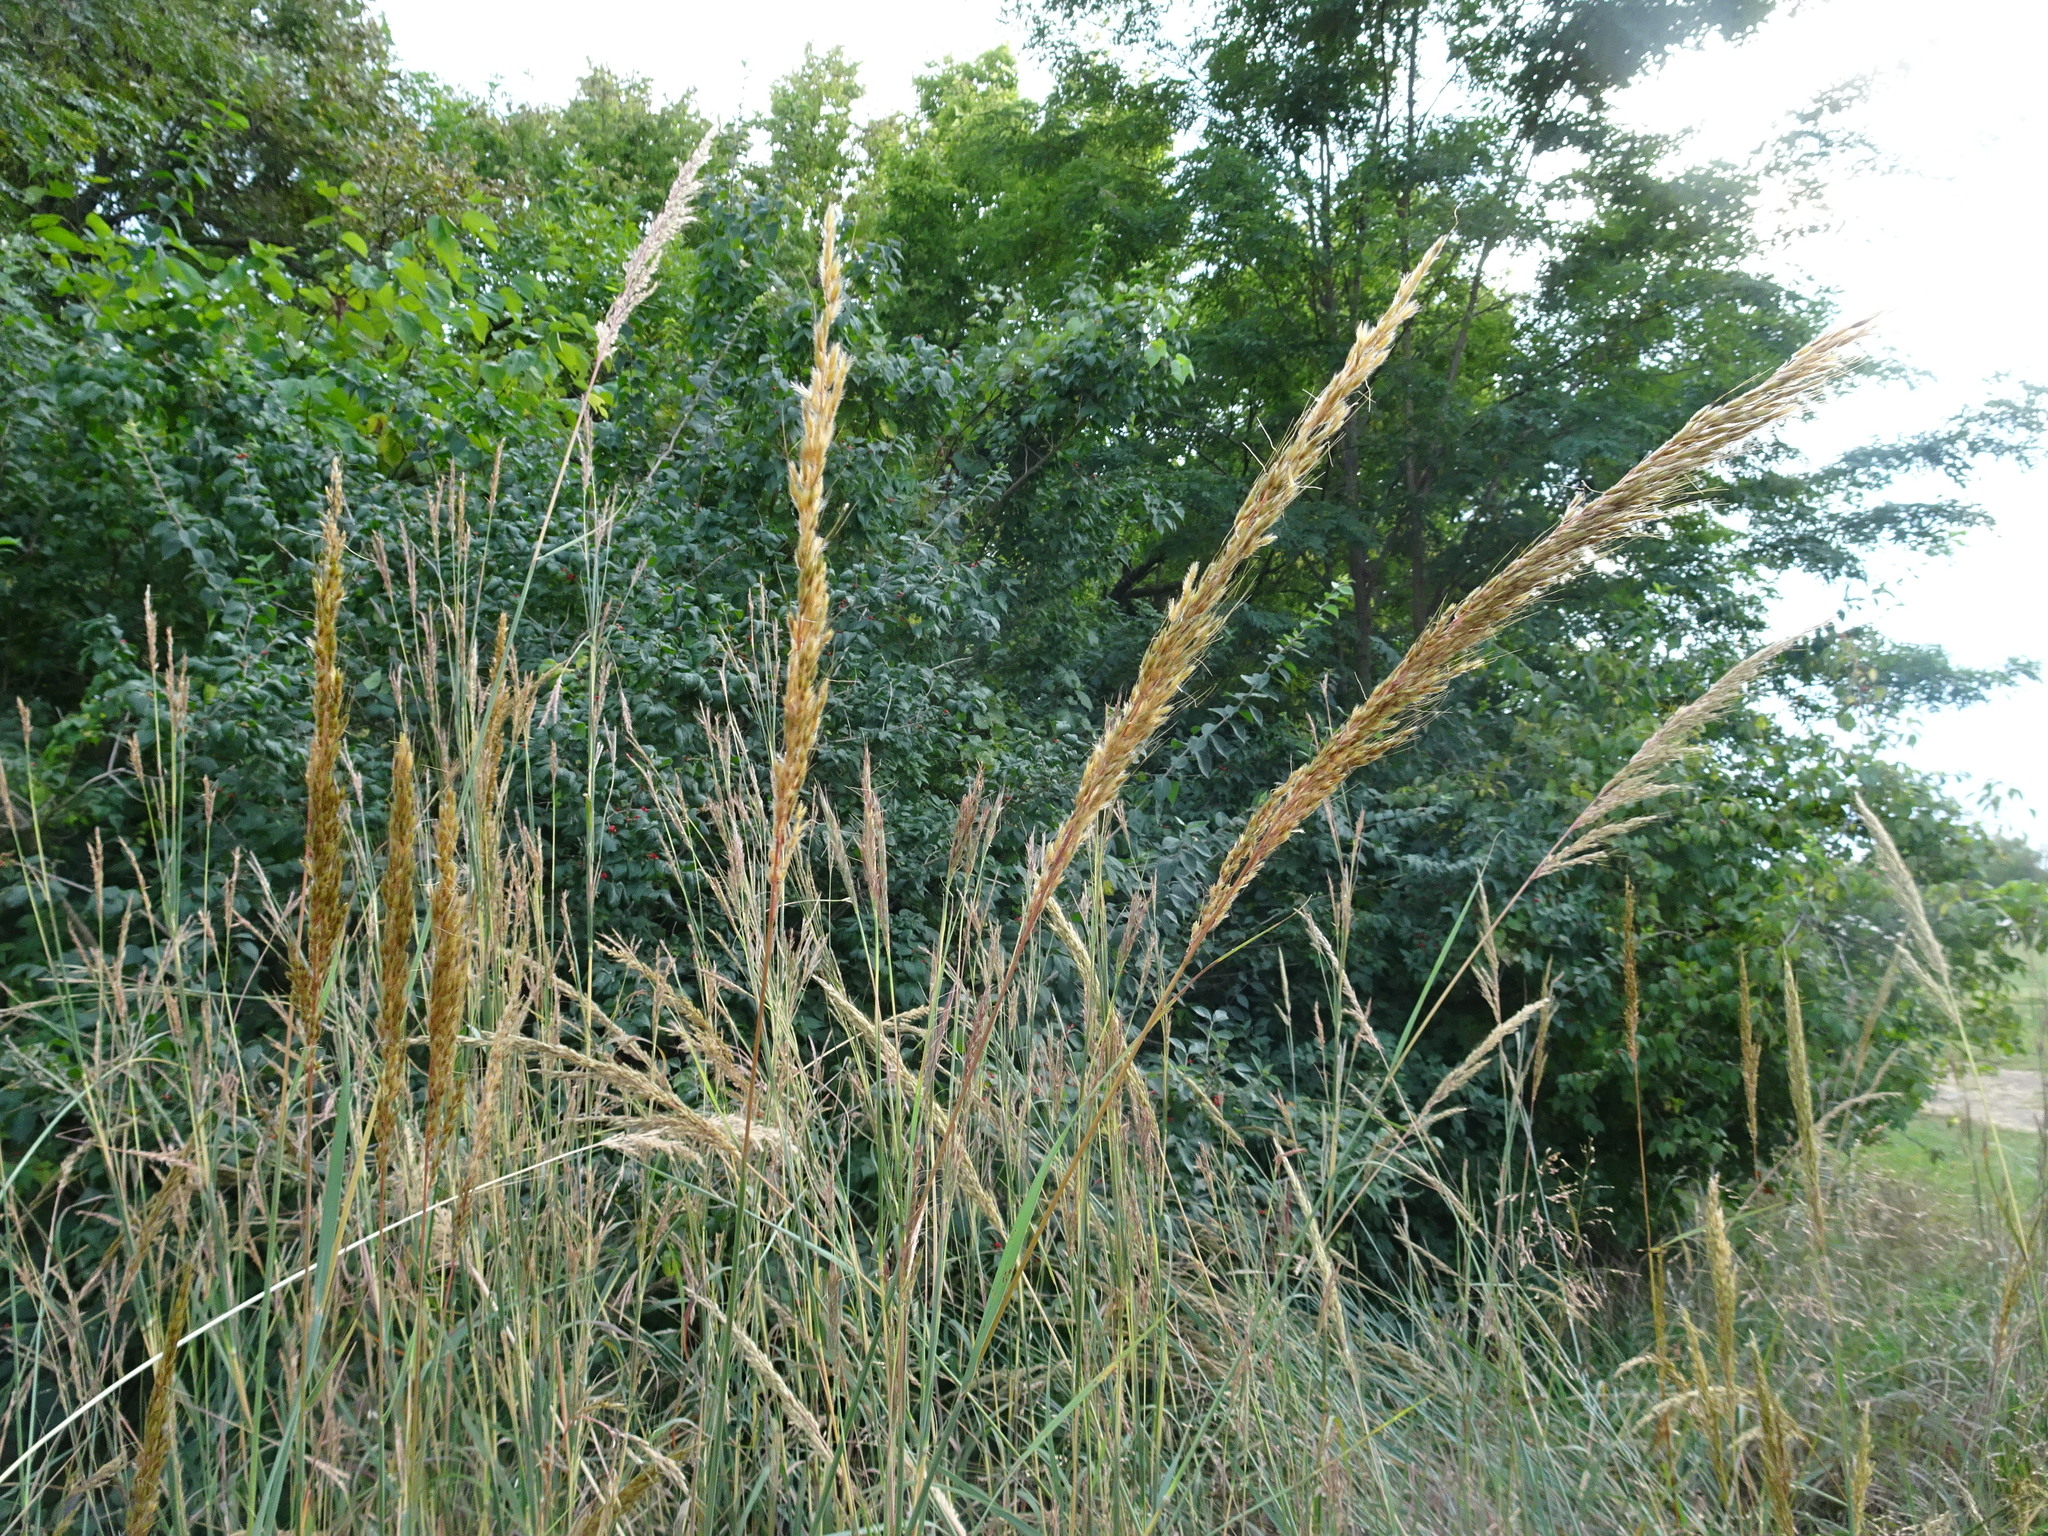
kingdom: Plantae
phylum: Tracheophyta
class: Liliopsida
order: Poales
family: Poaceae
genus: Sorghastrum
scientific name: Sorghastrum nutans
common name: Indian grass
